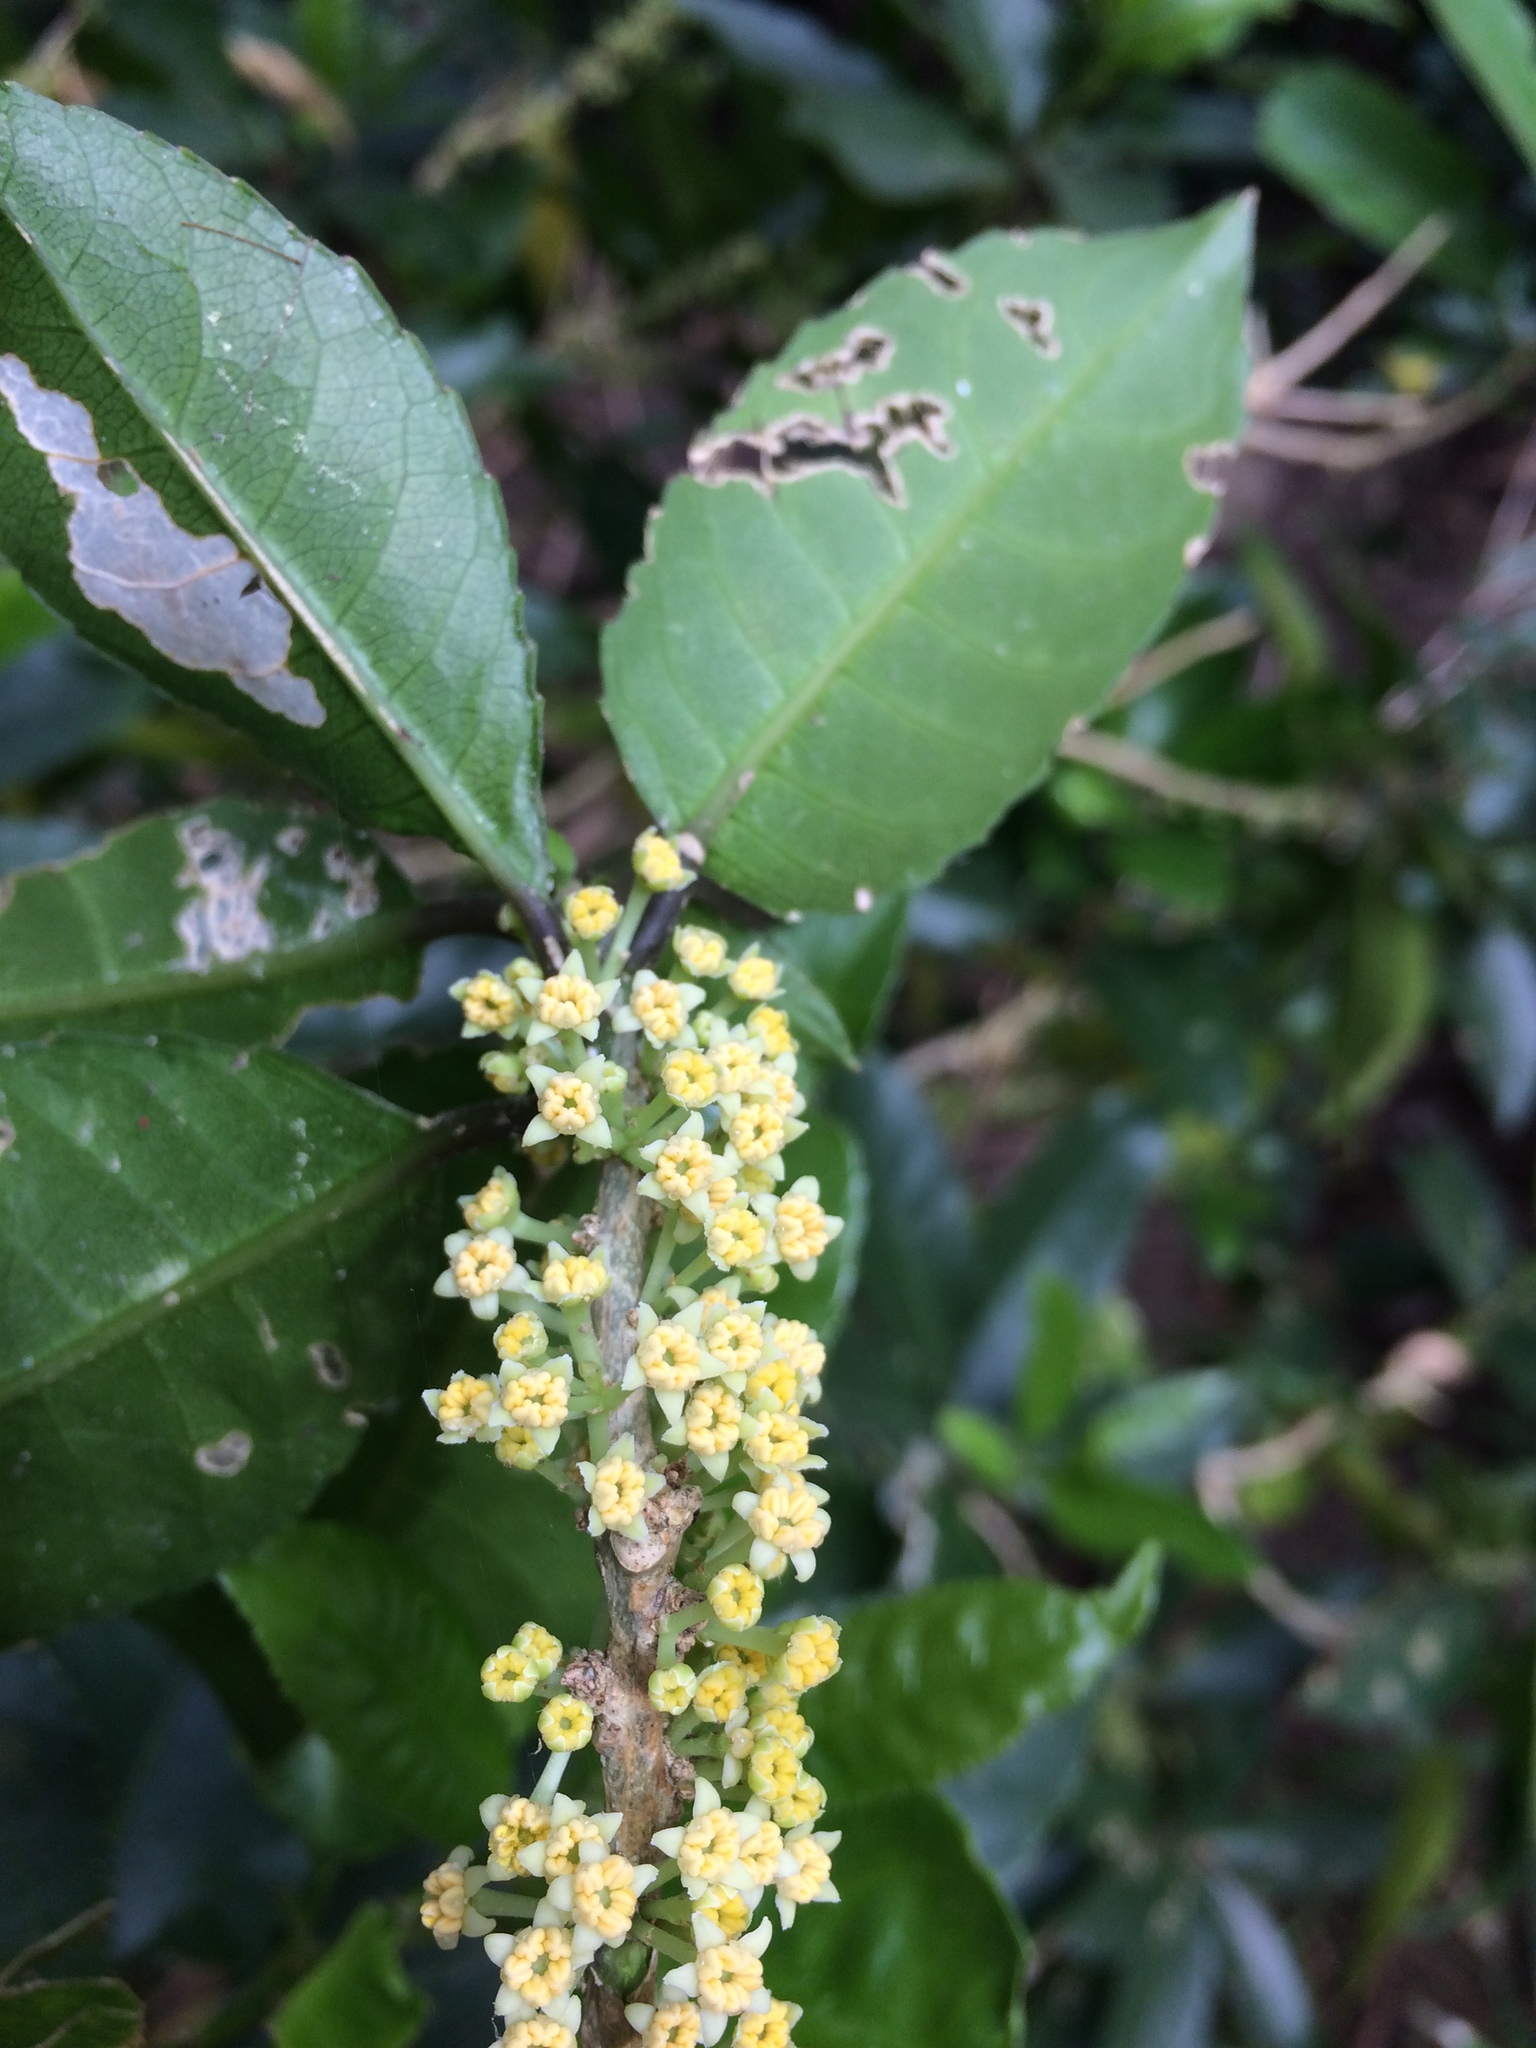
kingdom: Plantae
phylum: Tracheophyta
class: Magnoliopsida
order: Malpighiales
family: Violaceae
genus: Melicytus
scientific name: Melicytus ramiflorus
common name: Mahoe
